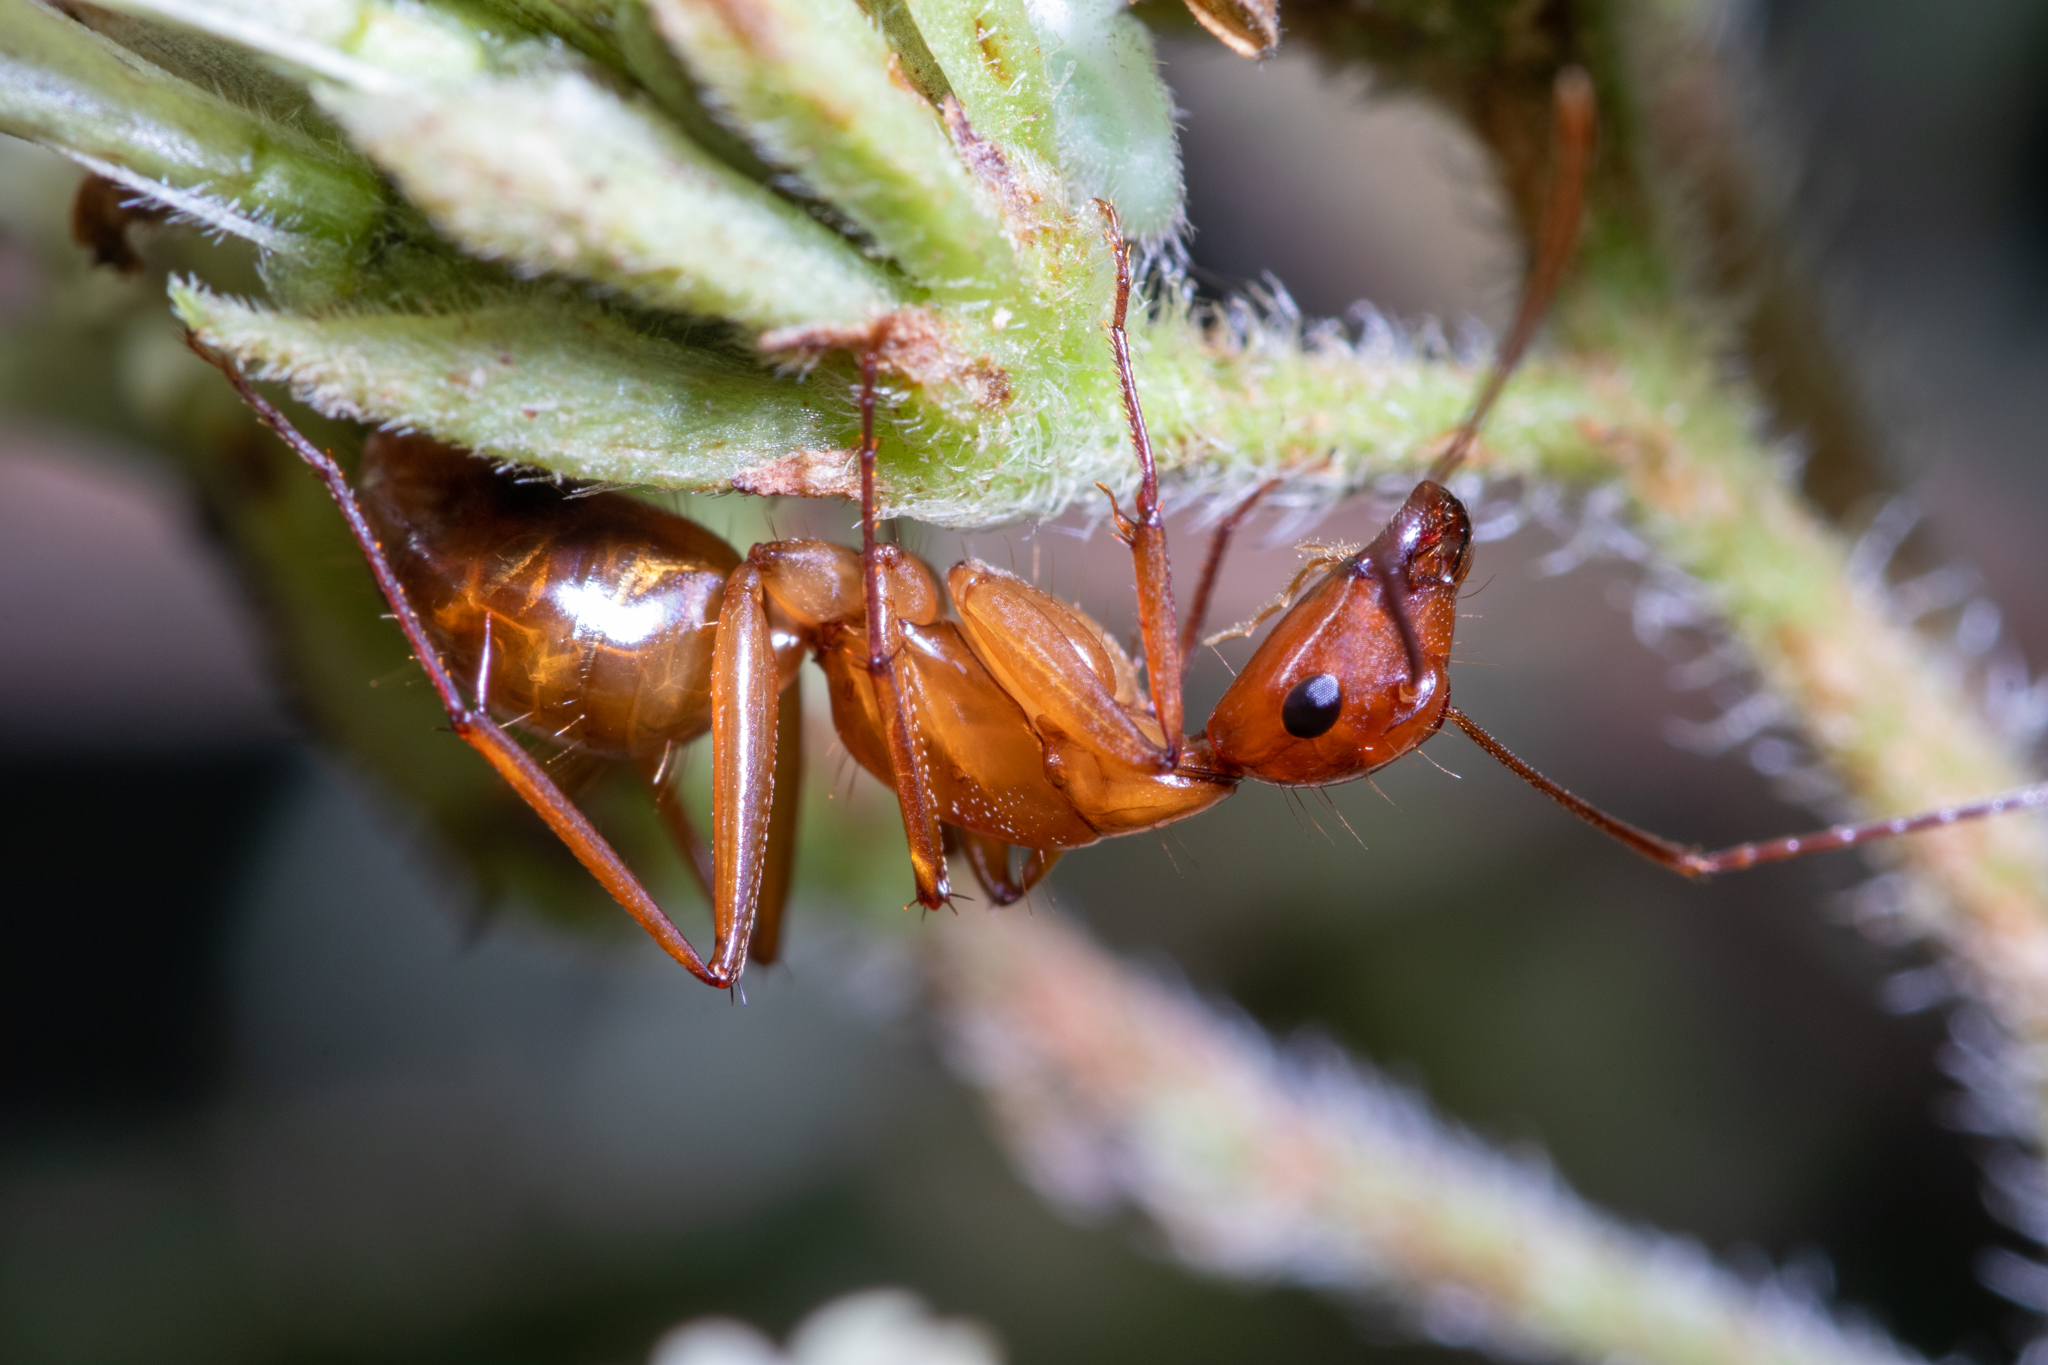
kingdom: Animalia
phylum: Arthropoda
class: Insecta
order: Hymenoptera
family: Formicidae
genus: Camponotus
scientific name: Camponotus castaneus
